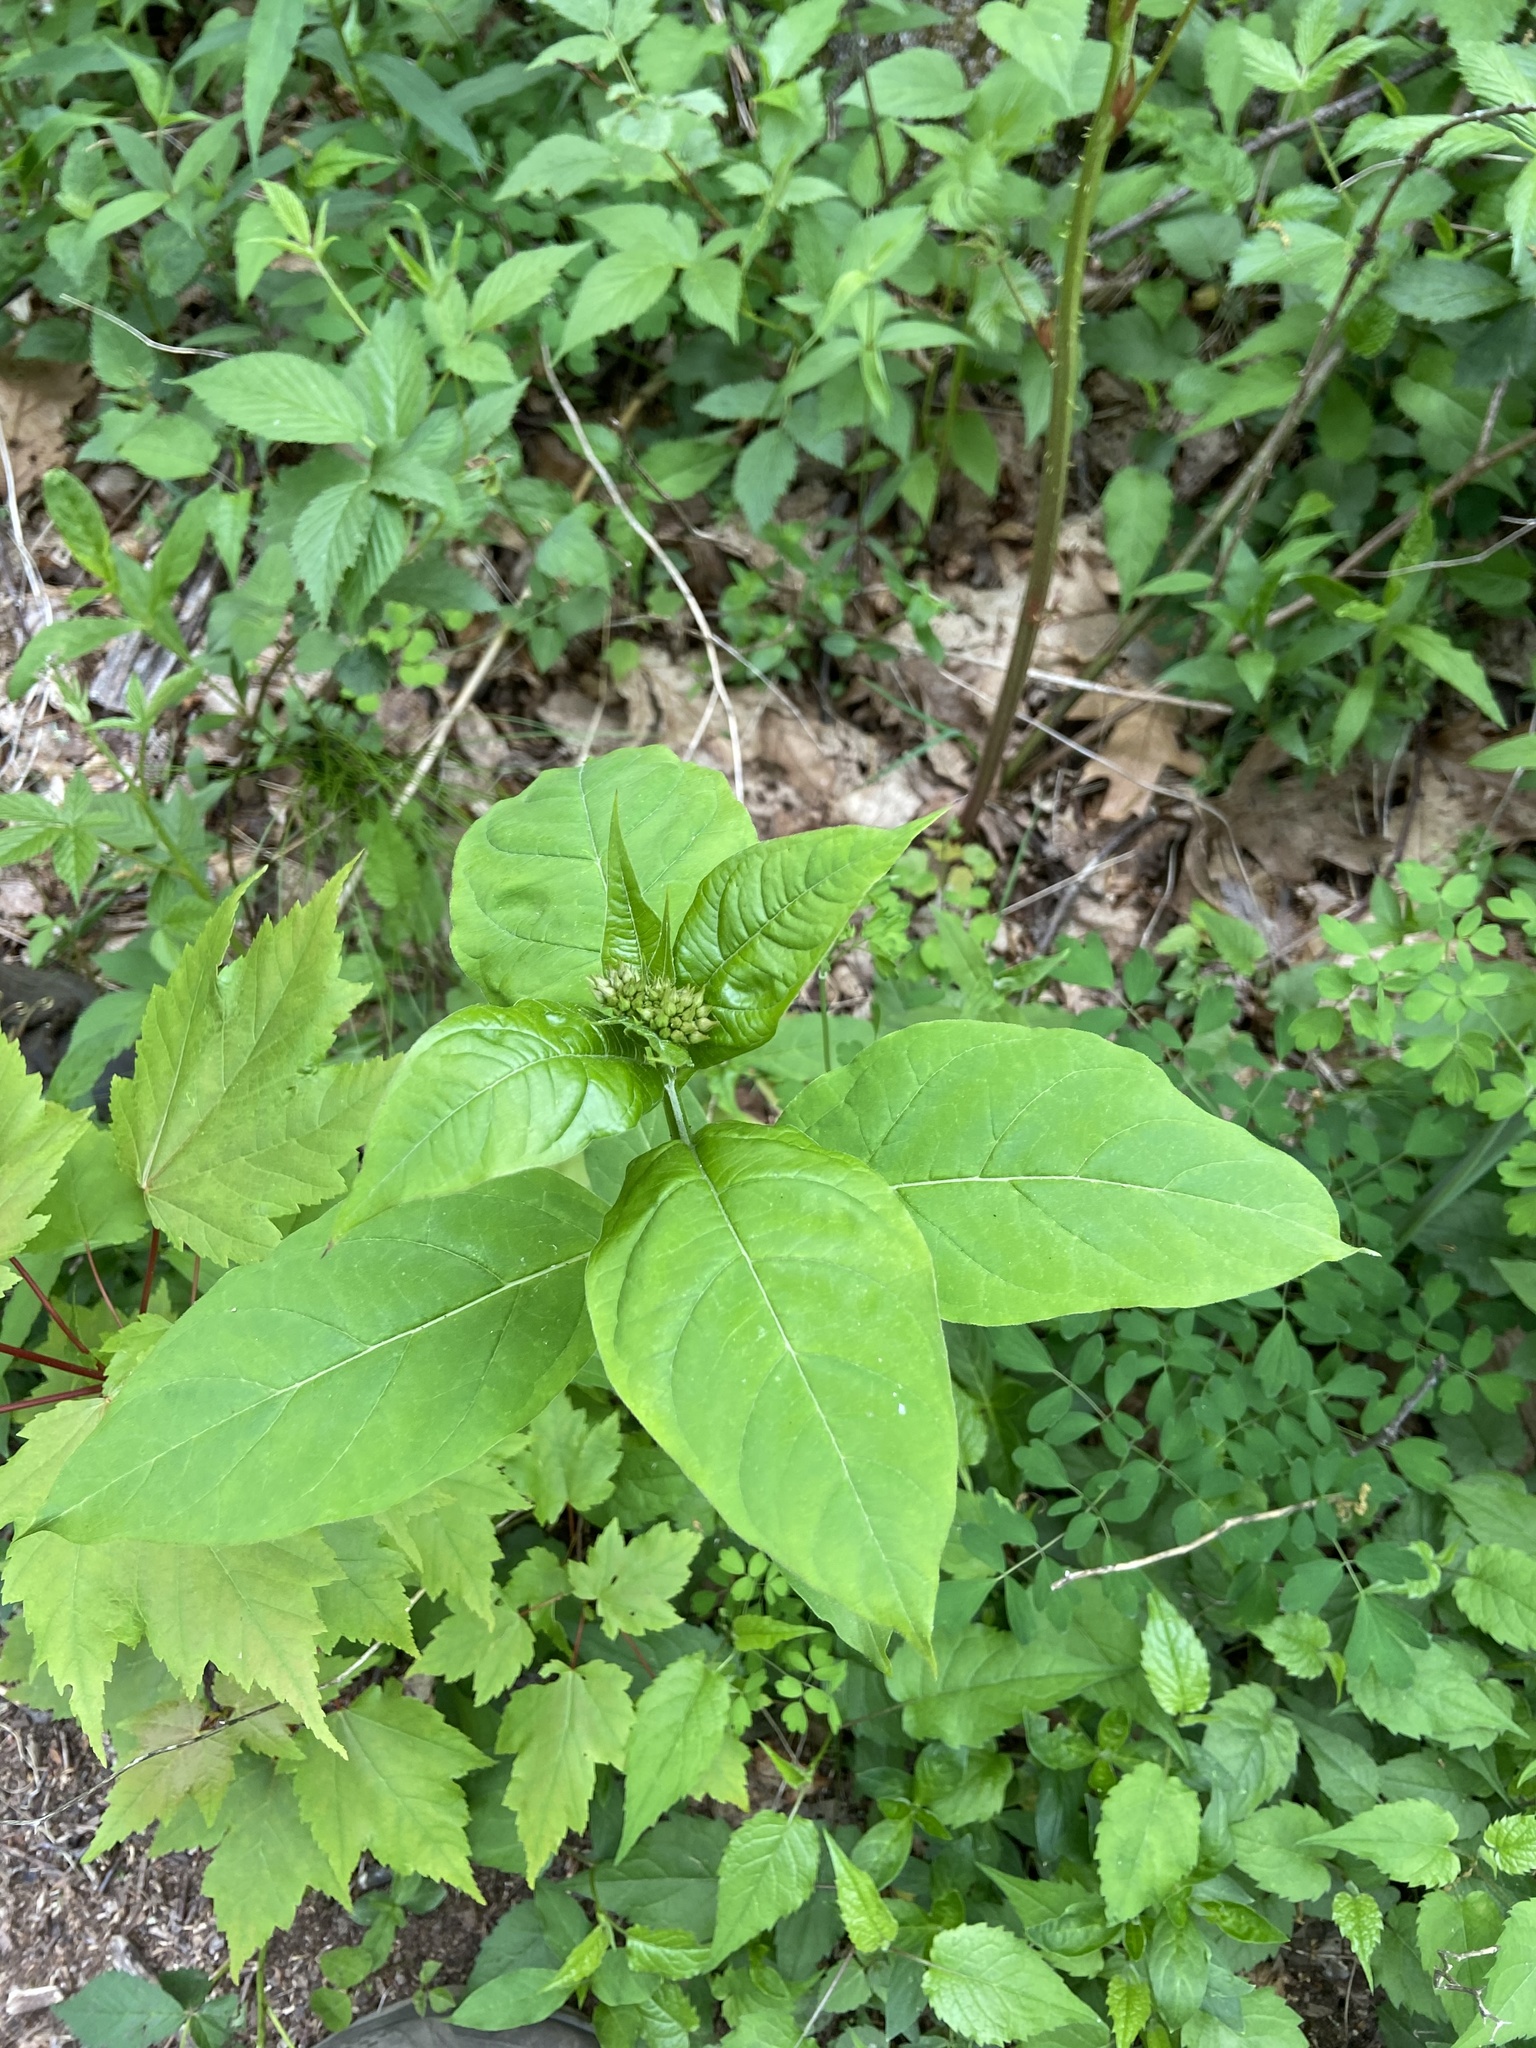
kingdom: Plantae
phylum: Tracheophyta
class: Magnoliopsida
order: Gentianales
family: Apocynaceae
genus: Asclepias
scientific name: Asclepias exaltata
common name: Poke milkweed
